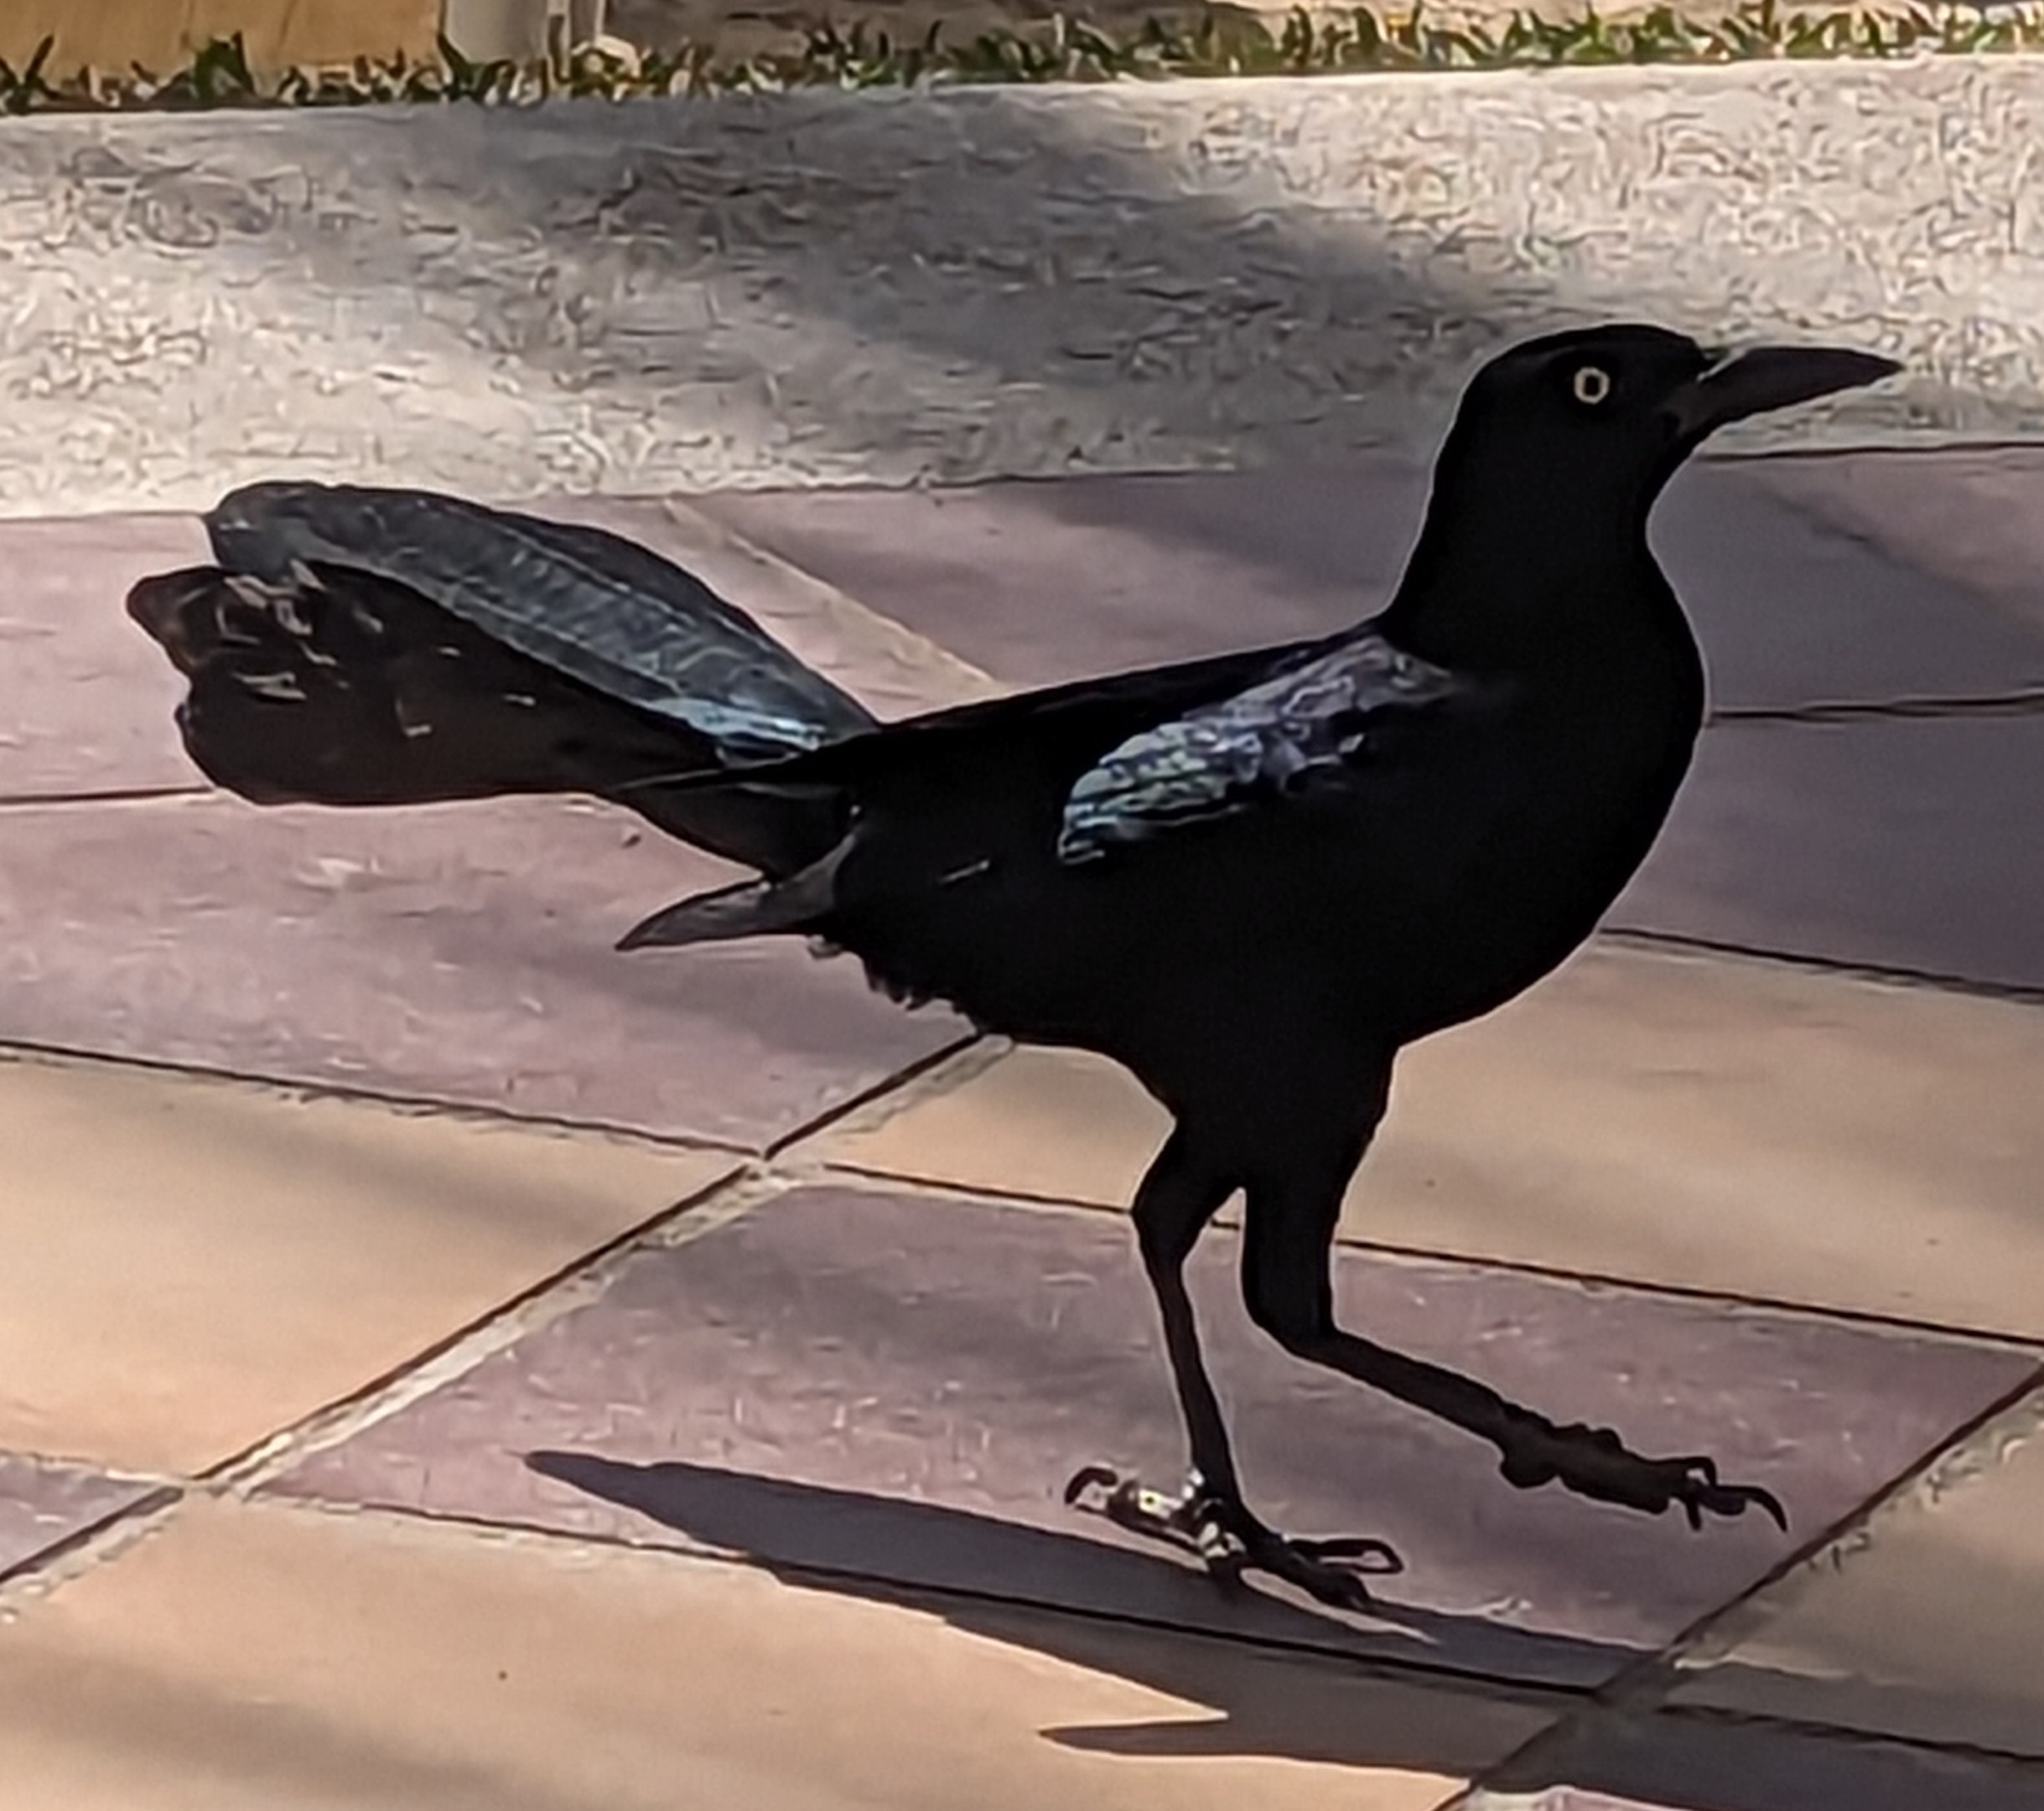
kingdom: Animalia
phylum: Chordata
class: Aves
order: Passeriformes
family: Icteridae
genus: Quiscalus
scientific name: Quiscalus mexicanus
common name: Great-tailed grackle
